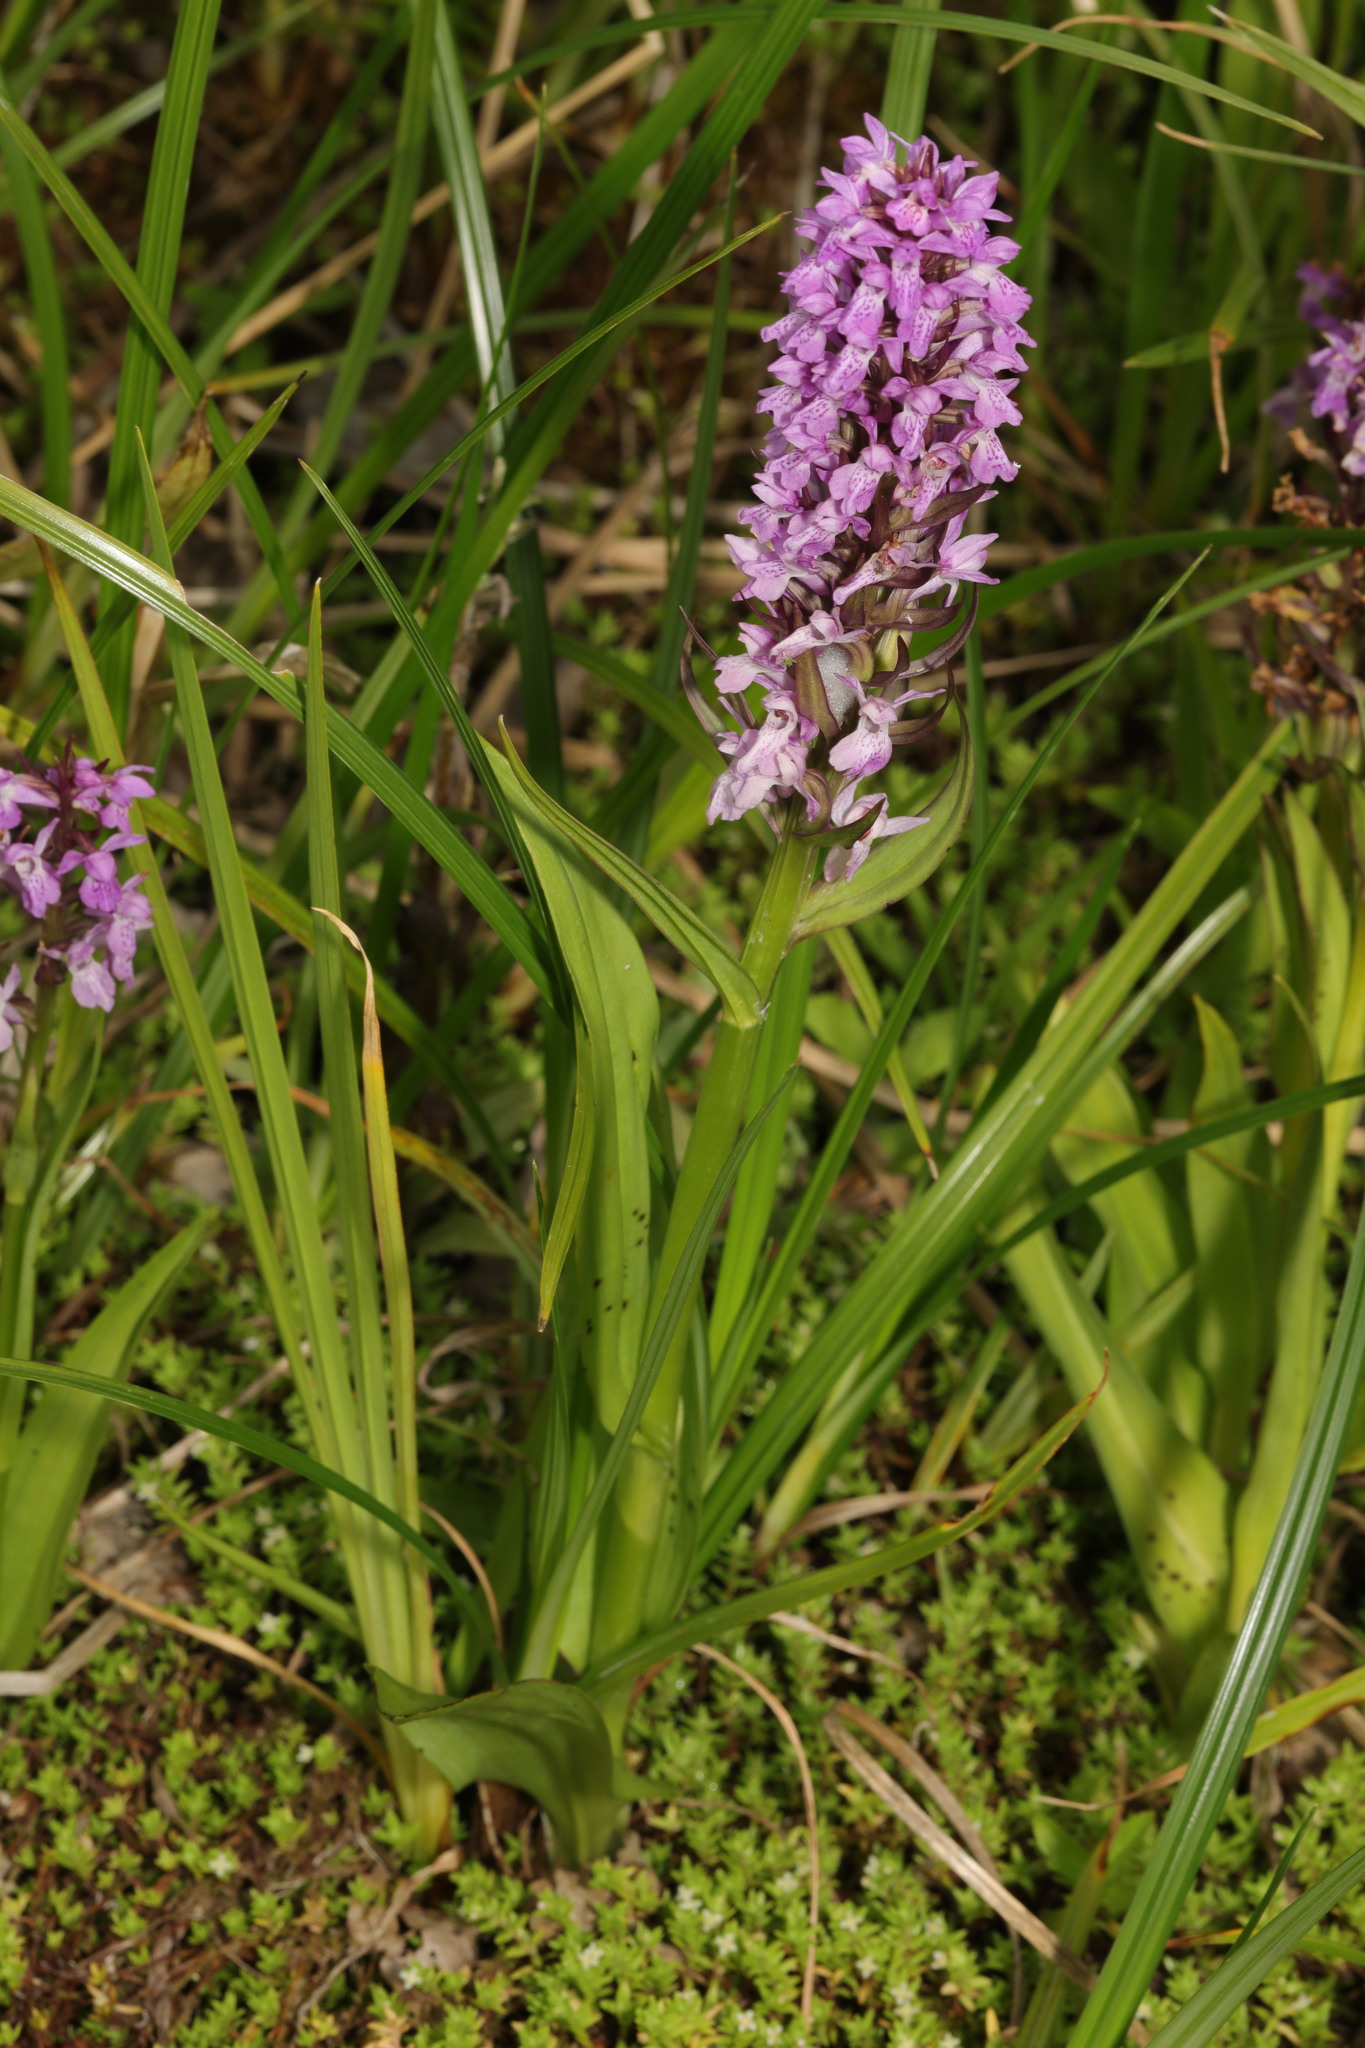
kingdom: Plantae
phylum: Tracheophyta
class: Liliopsida
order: Asparagales
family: Orchidaceae
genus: Dactylorhiza
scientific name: Dactylorhiza majalis
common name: Marsh orchid
